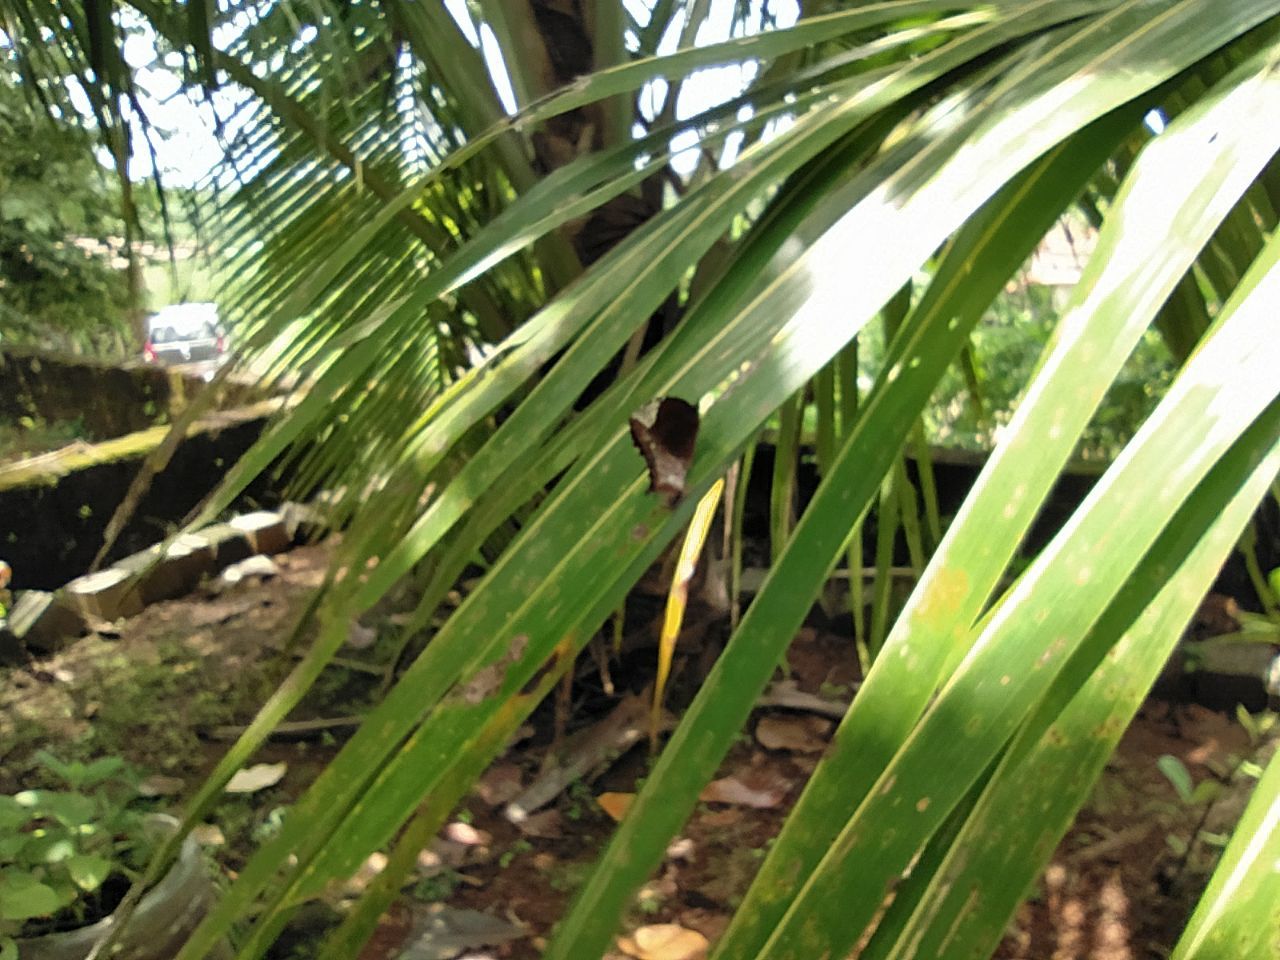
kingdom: Animalia
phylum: Arthropoda
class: Insecta
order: Lepidoptera
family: Nymphalidae
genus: Elymnias
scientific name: Elymnias caudata
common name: Tailed palmfly
